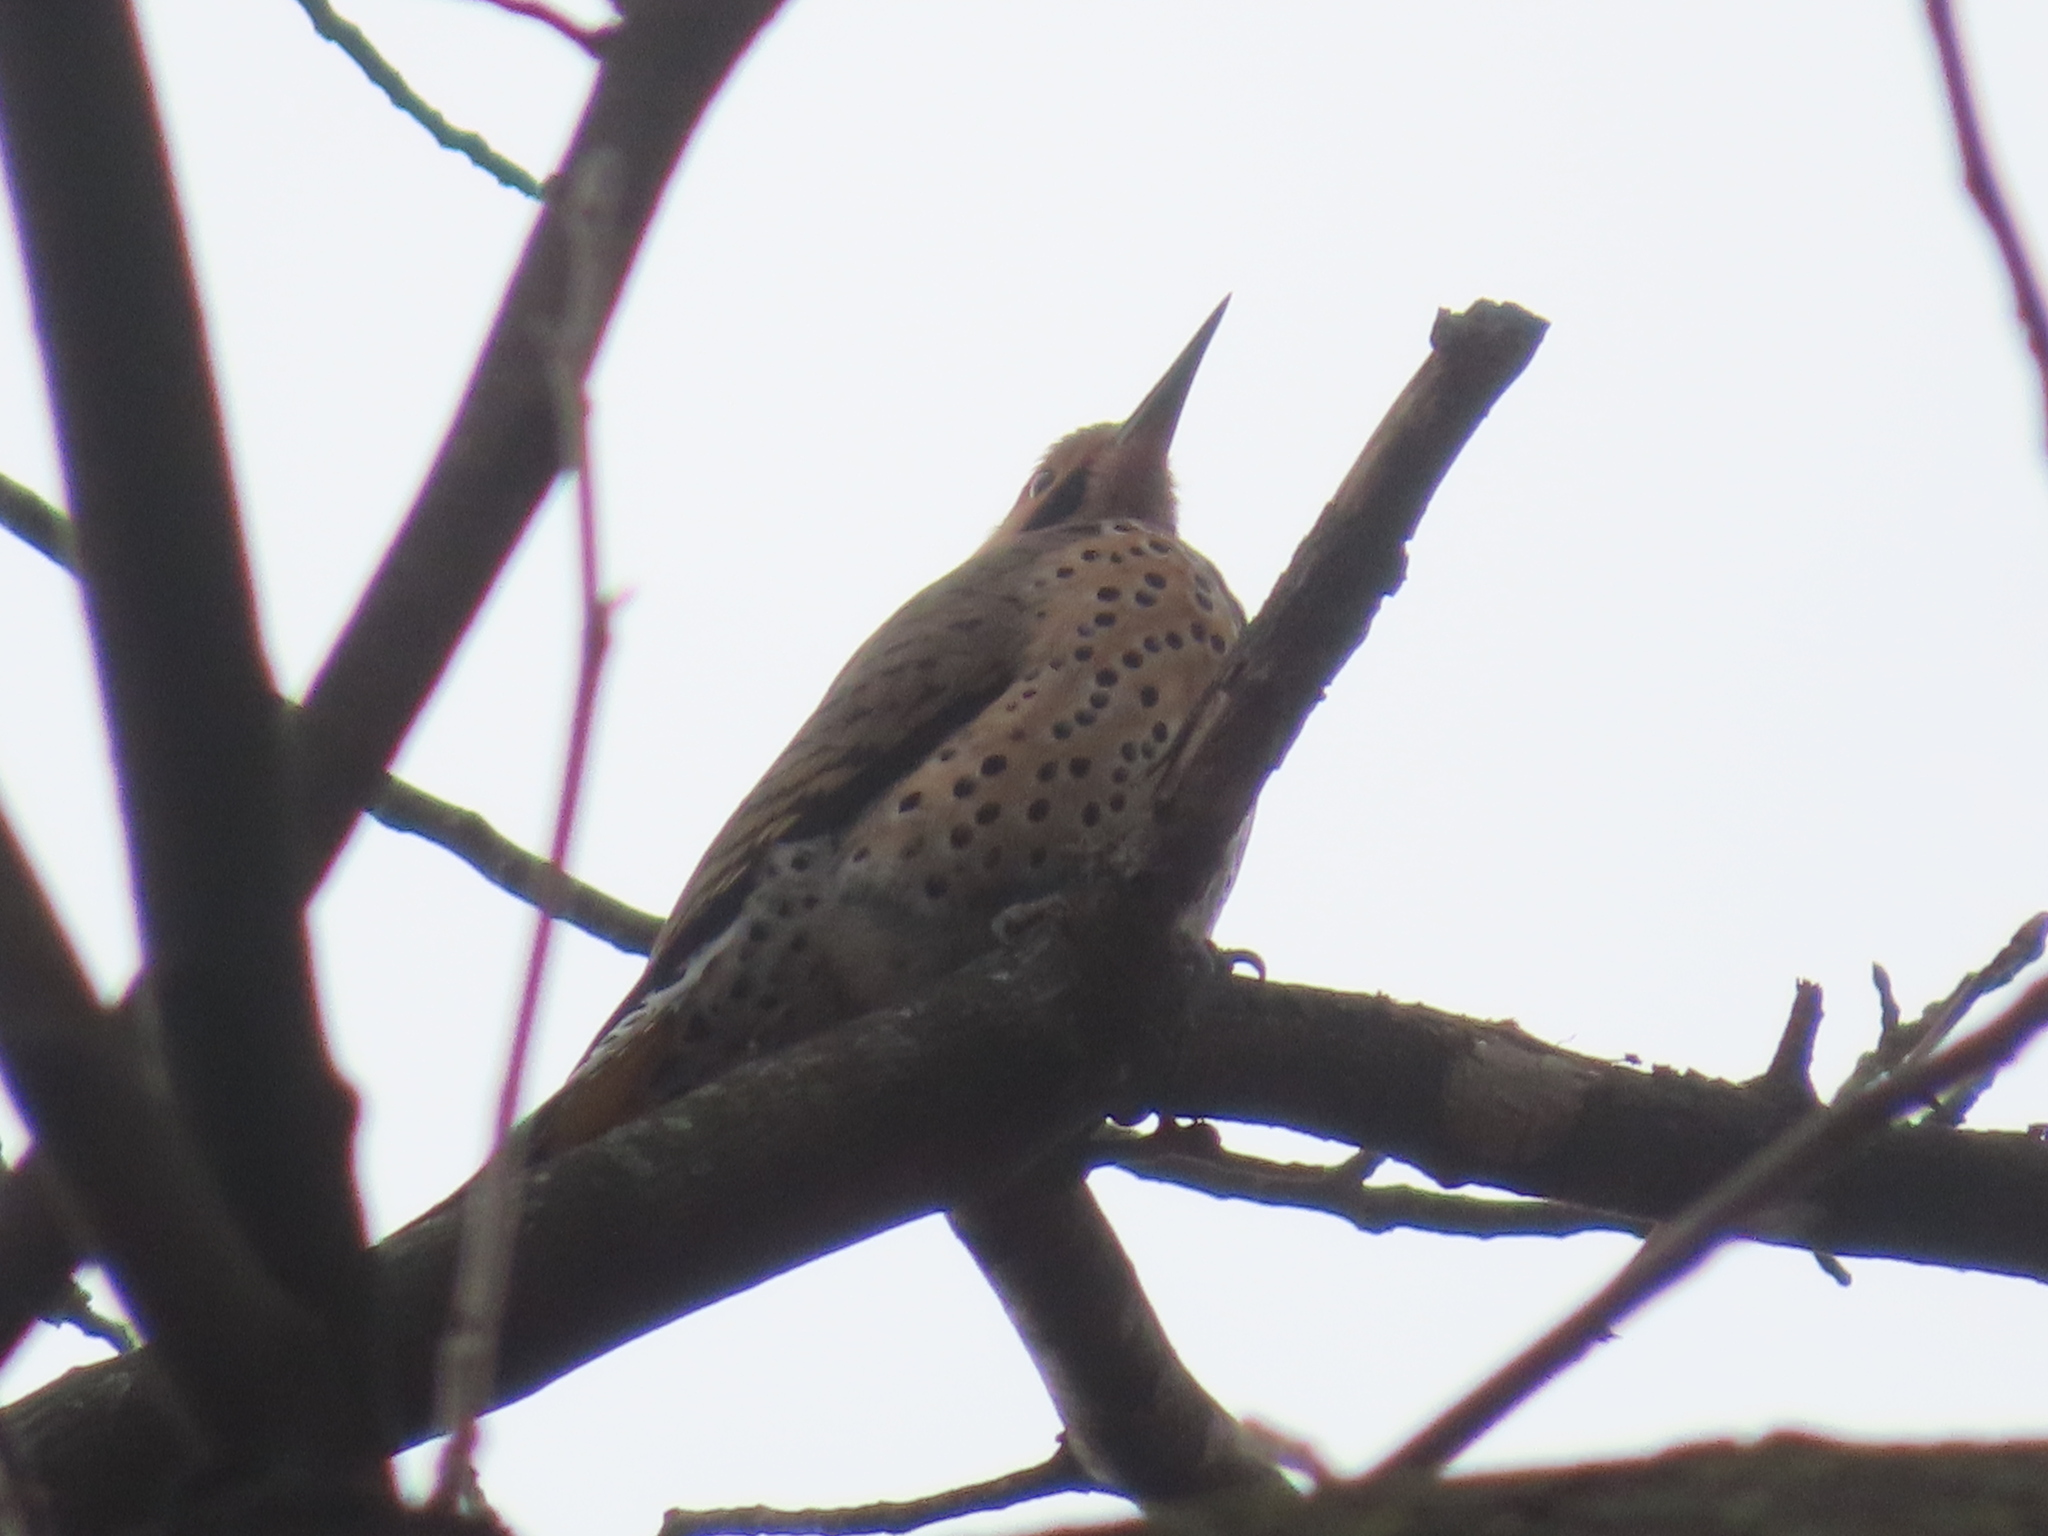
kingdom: Animalia
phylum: Chordata
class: Aves
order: Piciformes
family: Picidae
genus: Colaptes
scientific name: Colaptes auratus
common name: Northern flicker
